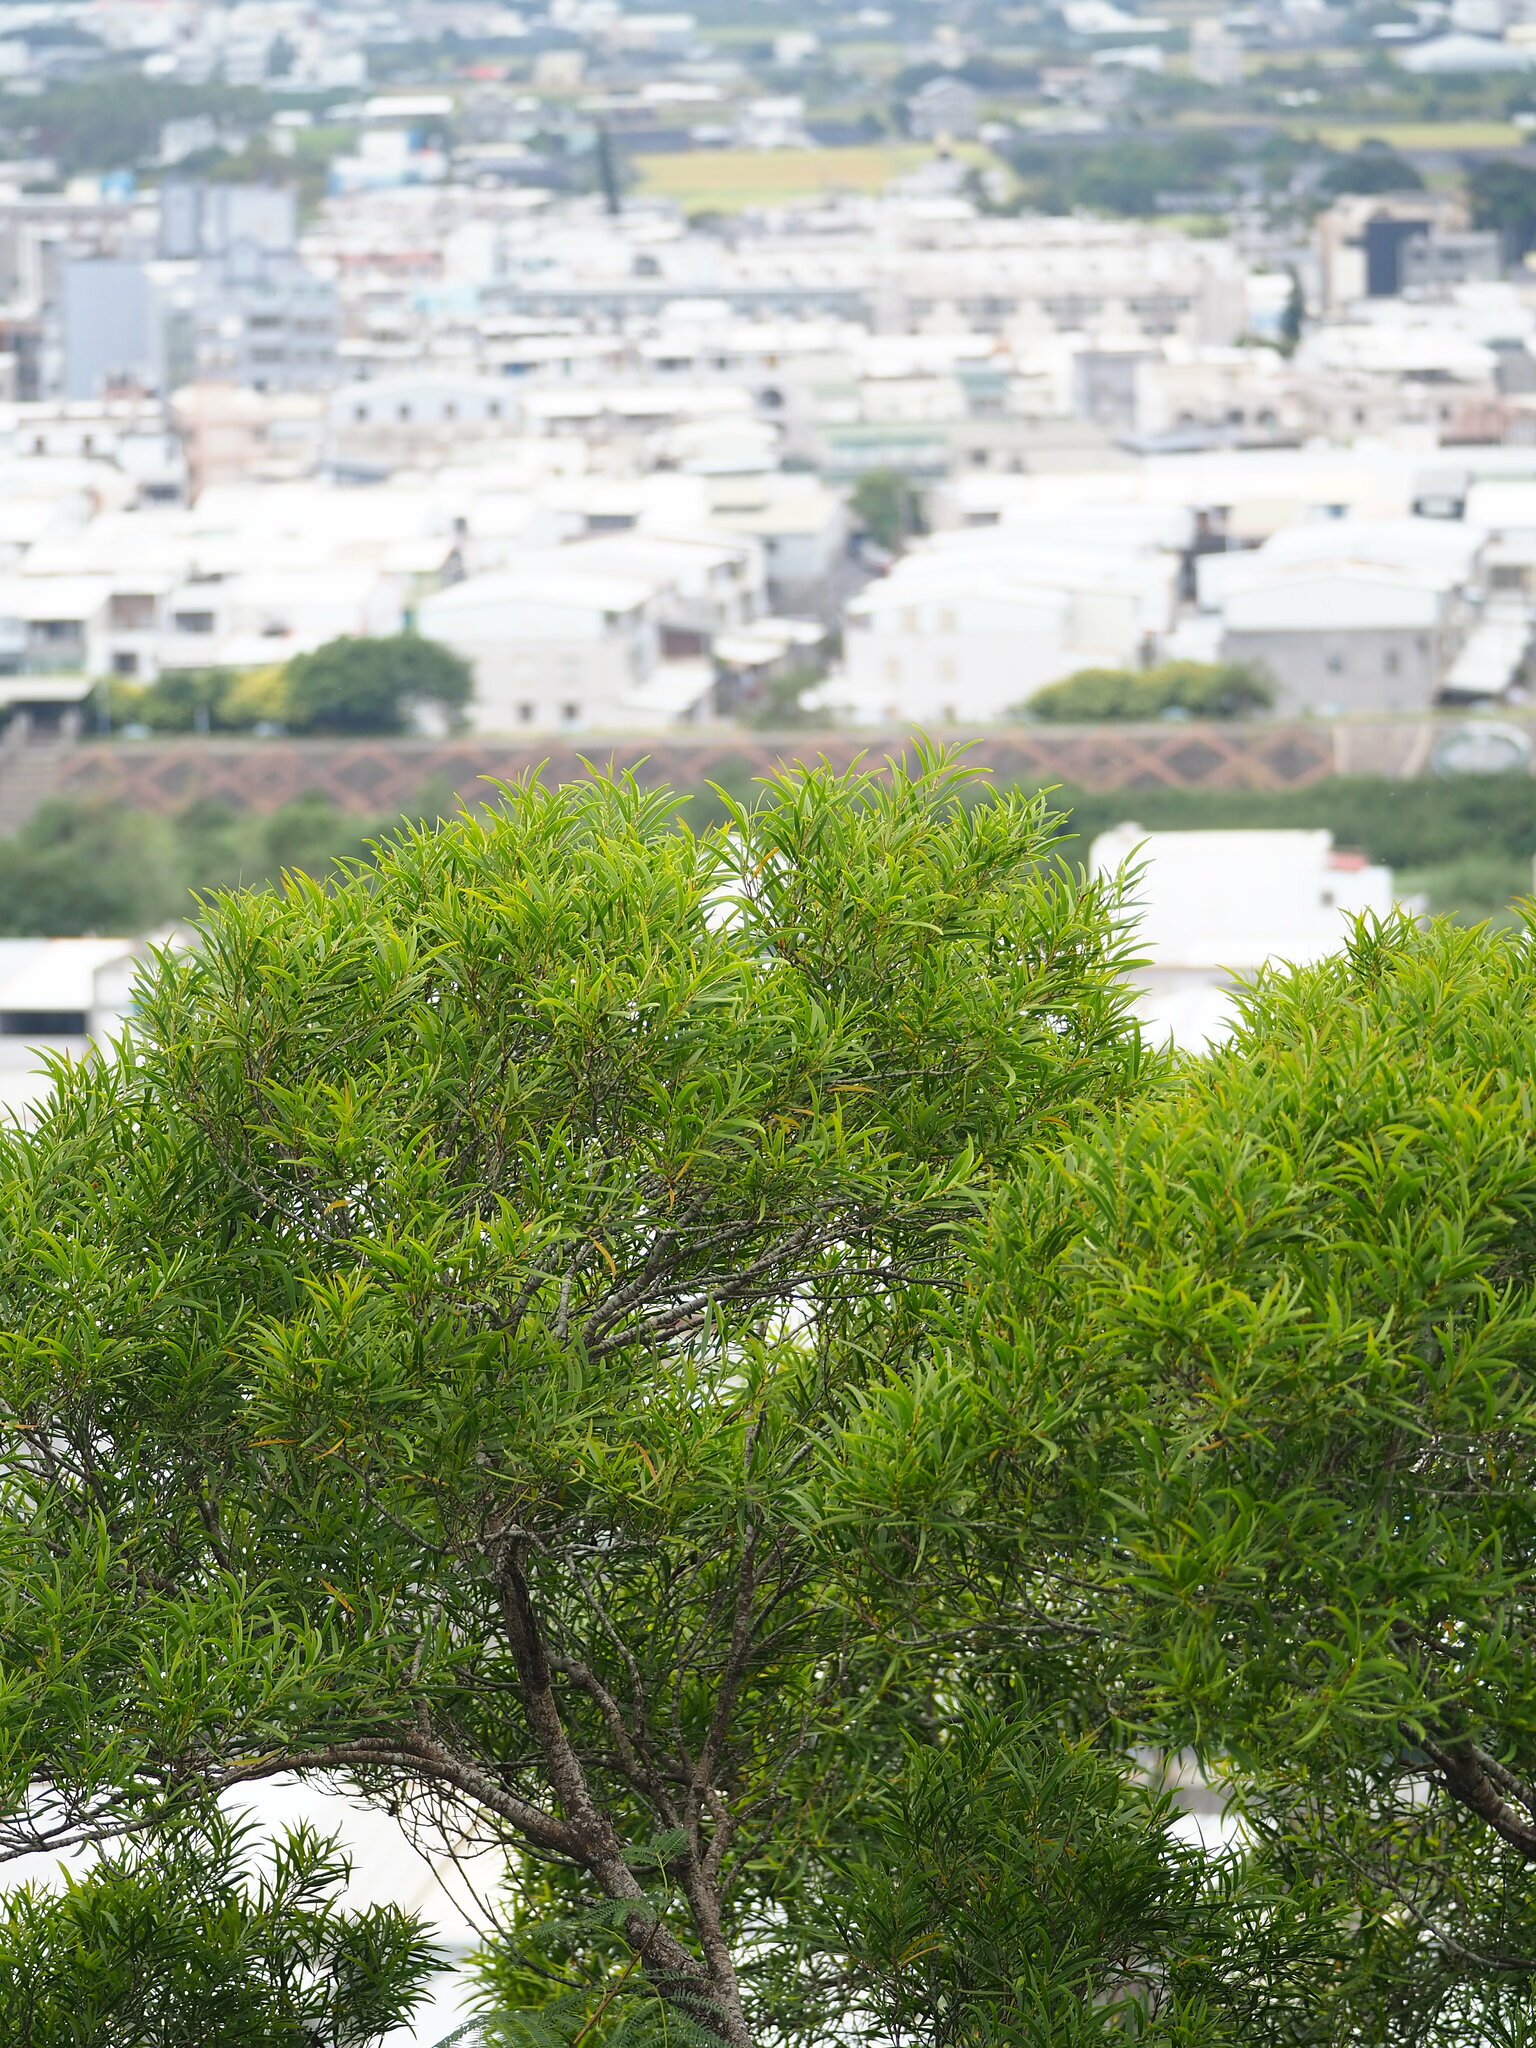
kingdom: Plantae
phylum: Tracheophyta
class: Magnoliopsida
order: Fabales
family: Fabaceae
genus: Acacia
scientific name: Acacia confusa
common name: Formosan koa
